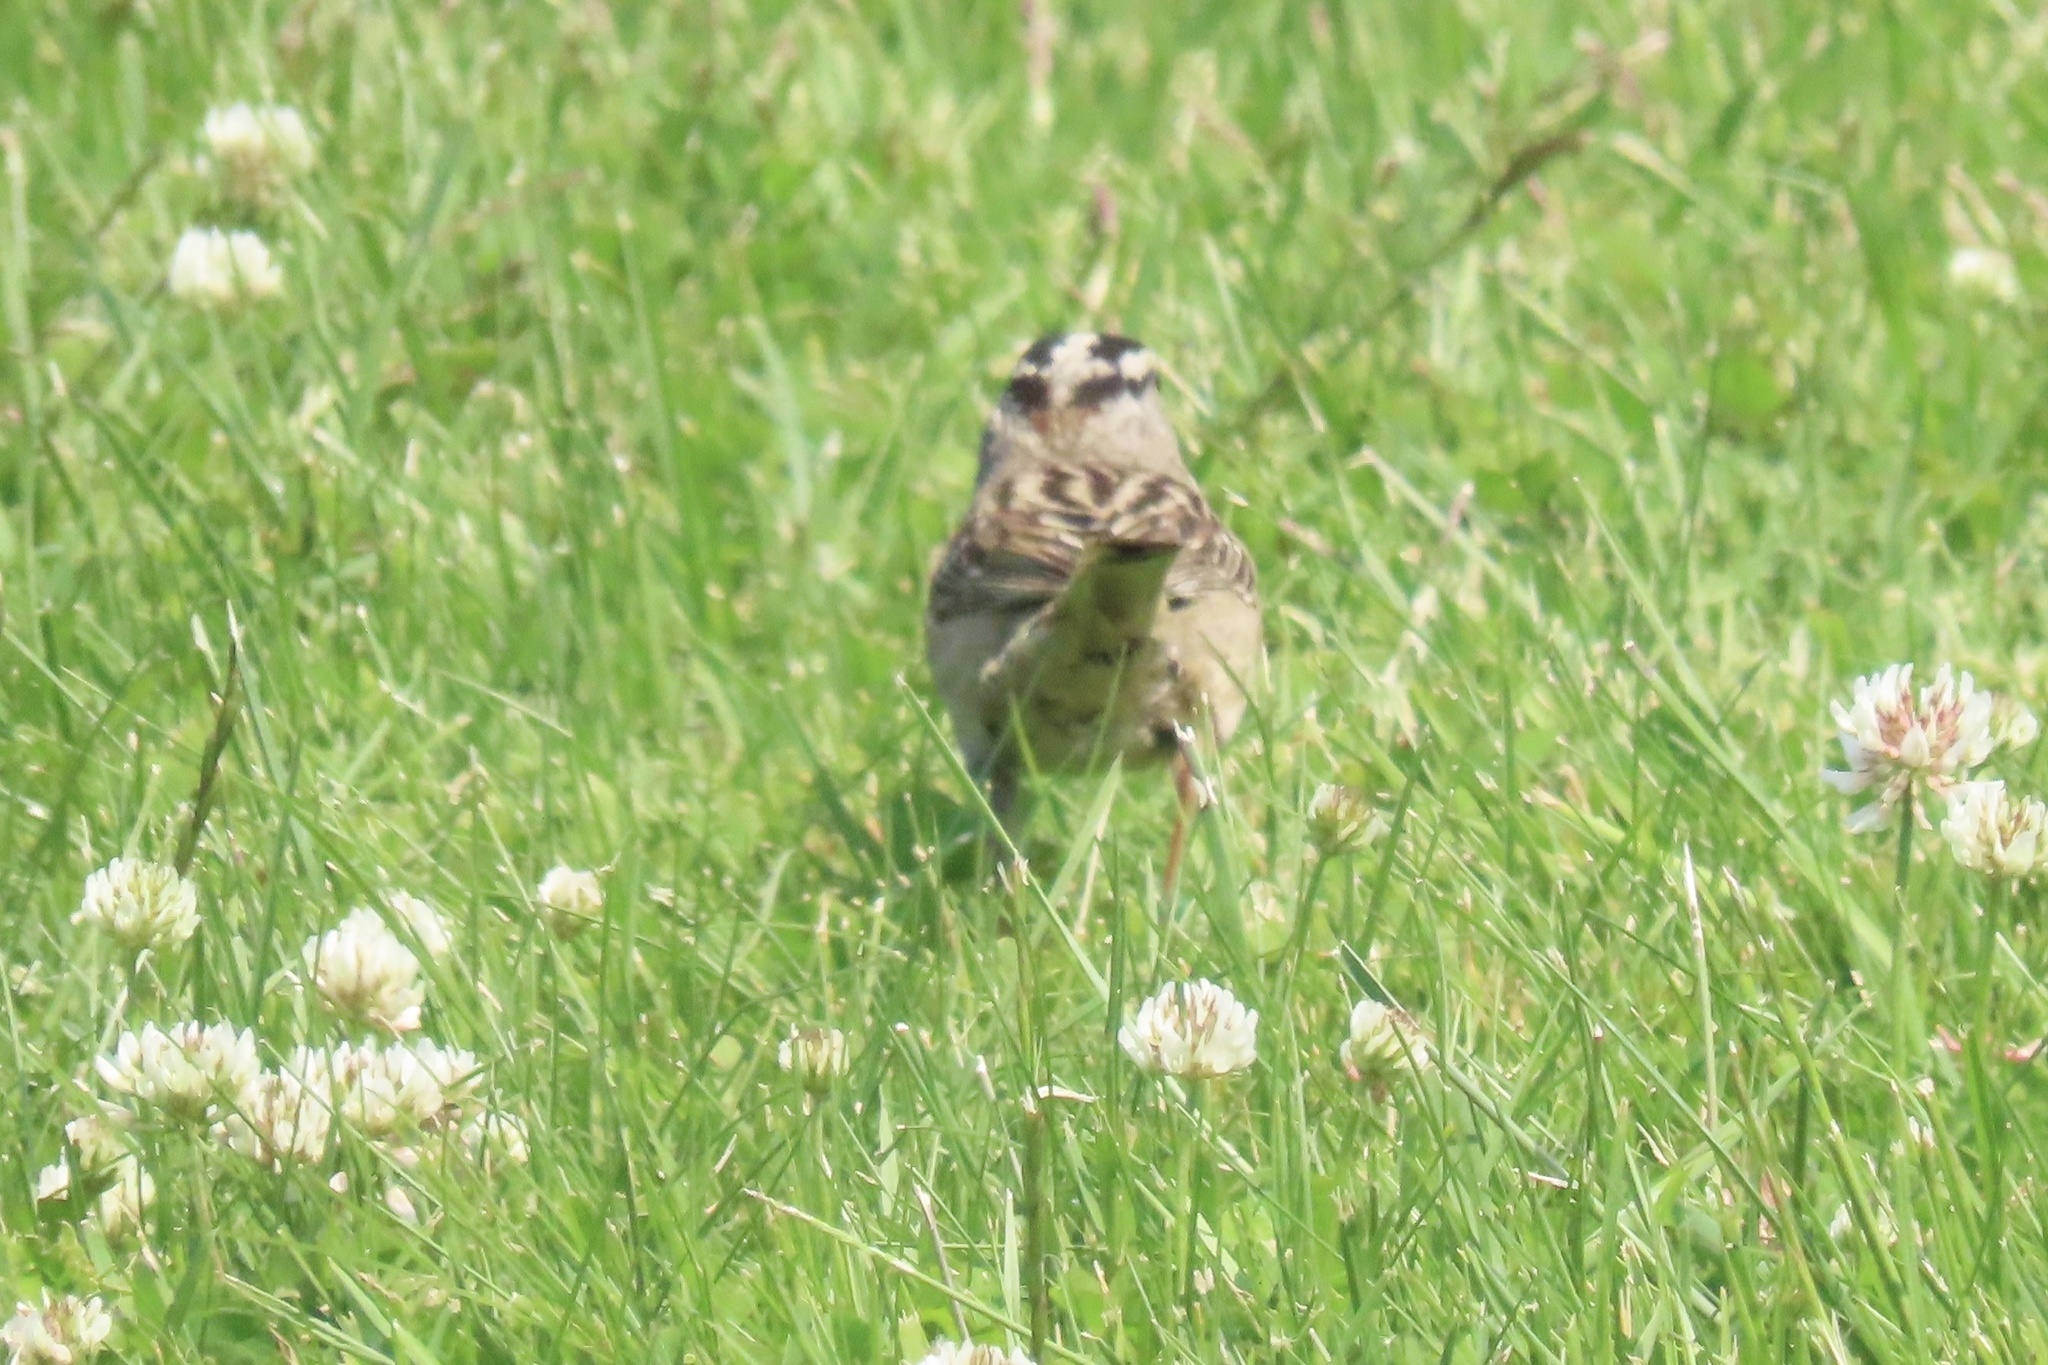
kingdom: Animalia
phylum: Chordata
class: Aves
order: Passeriformes
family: Passerellidae
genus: Zonotrichia
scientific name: Zonotrichia leucophrys
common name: White-crowned sparrow
